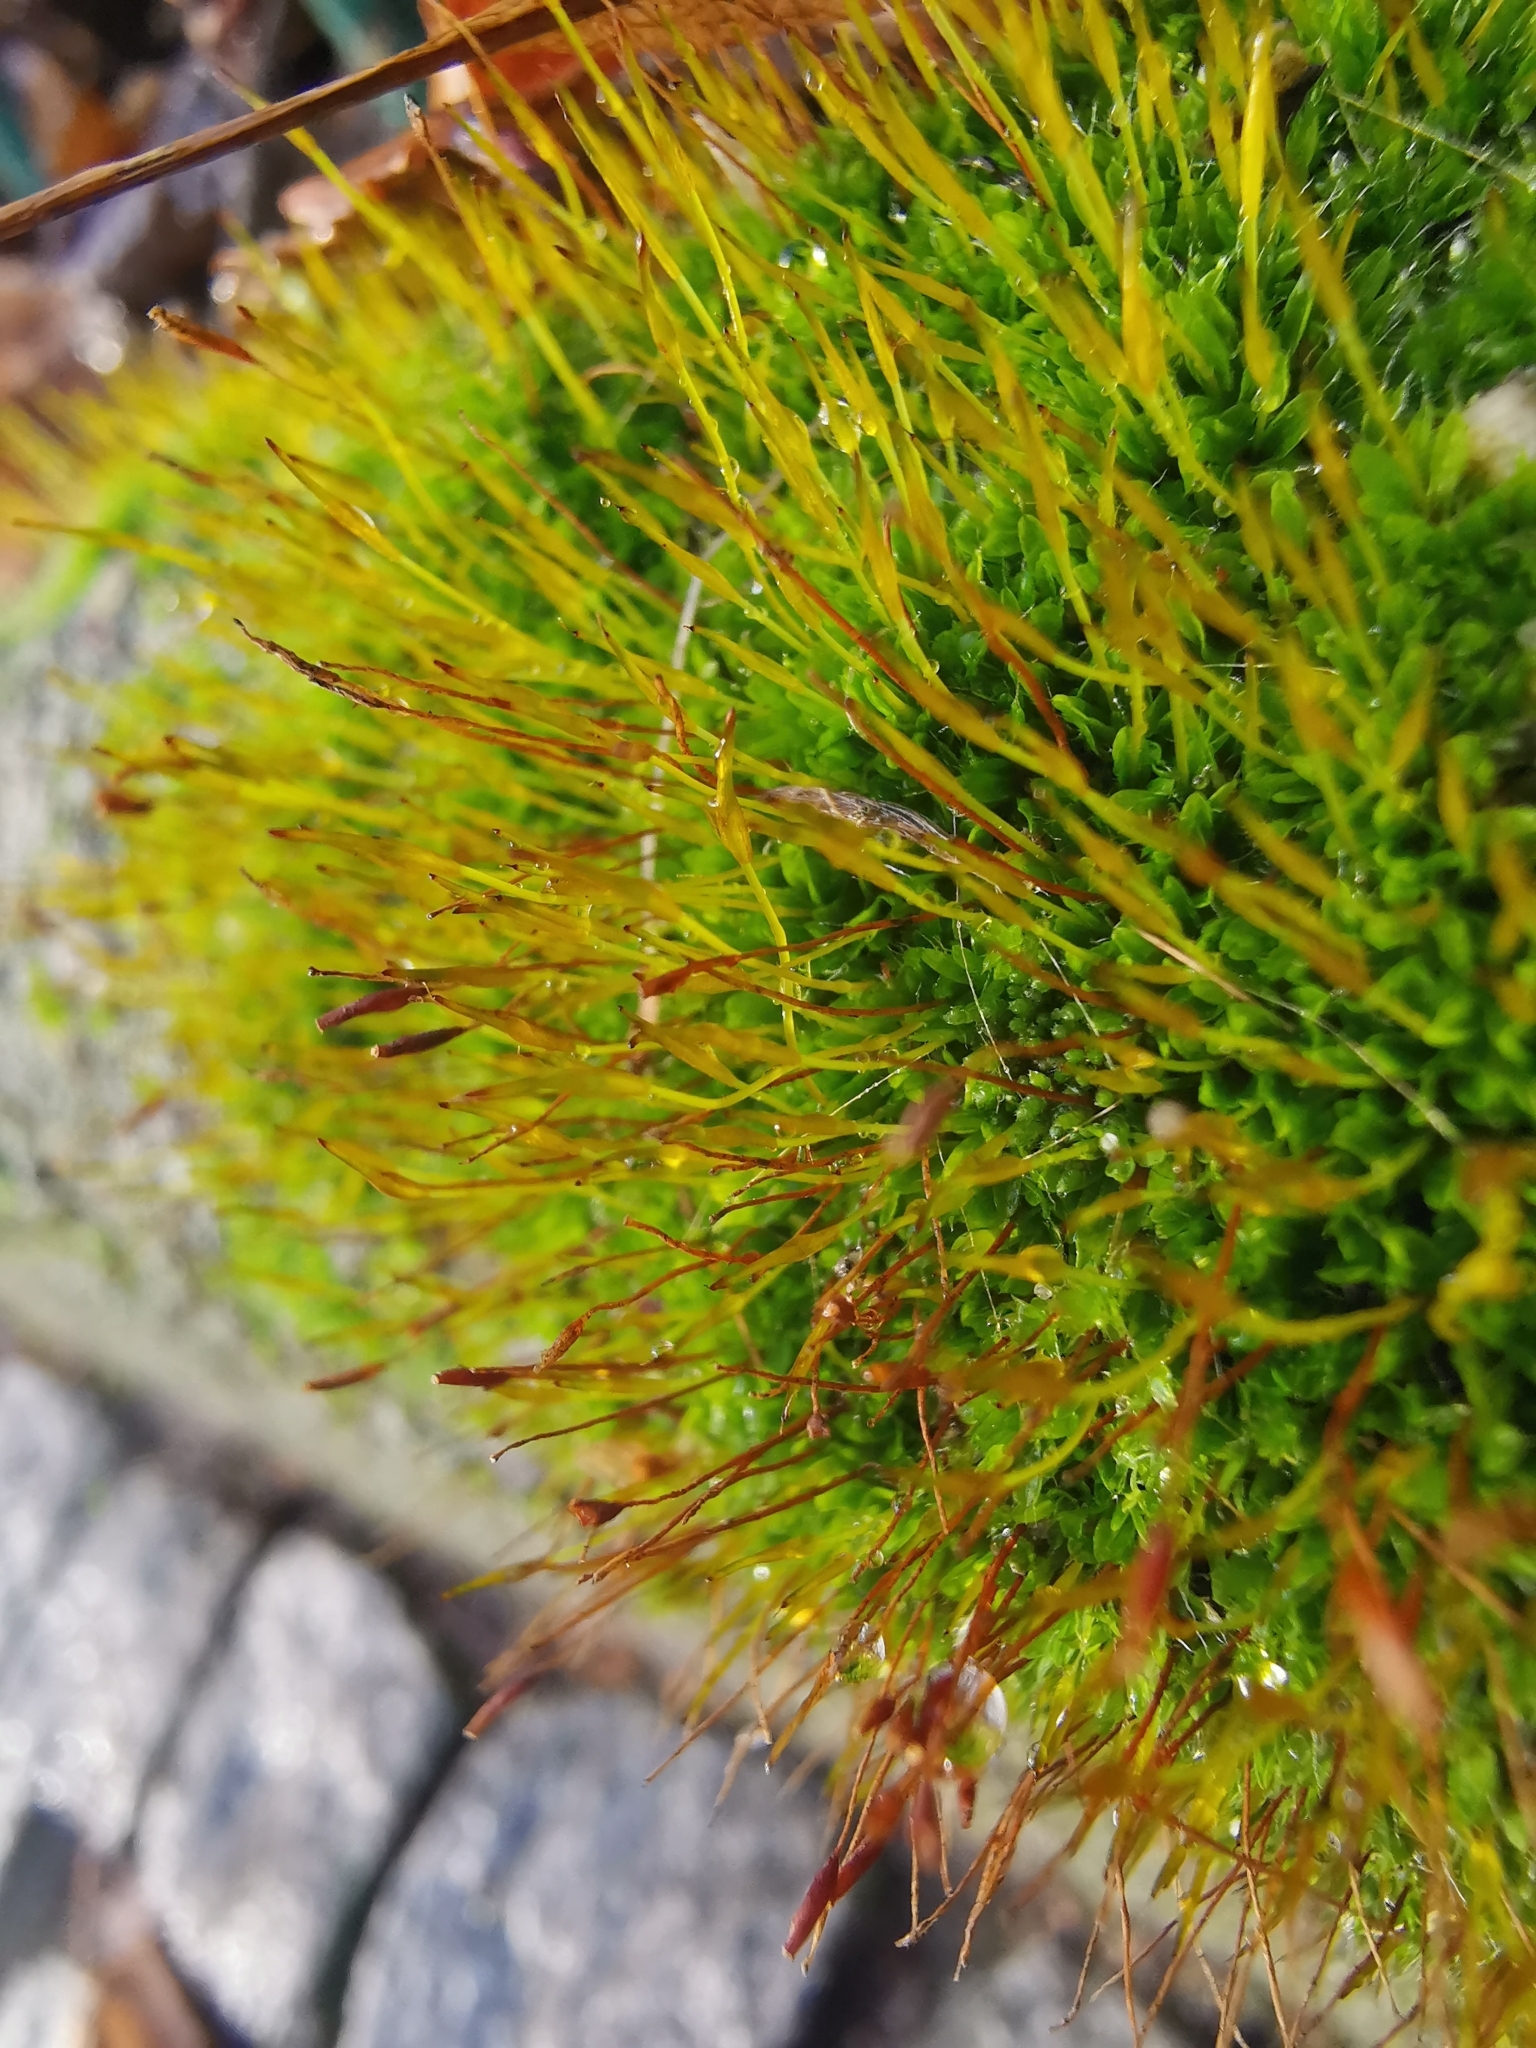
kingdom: Plantae
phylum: Bryophyta
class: Bryopsida
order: Pottiales
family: Pottiaceae
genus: Tortula
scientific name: Tortula muralis
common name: Wall screw-moss
